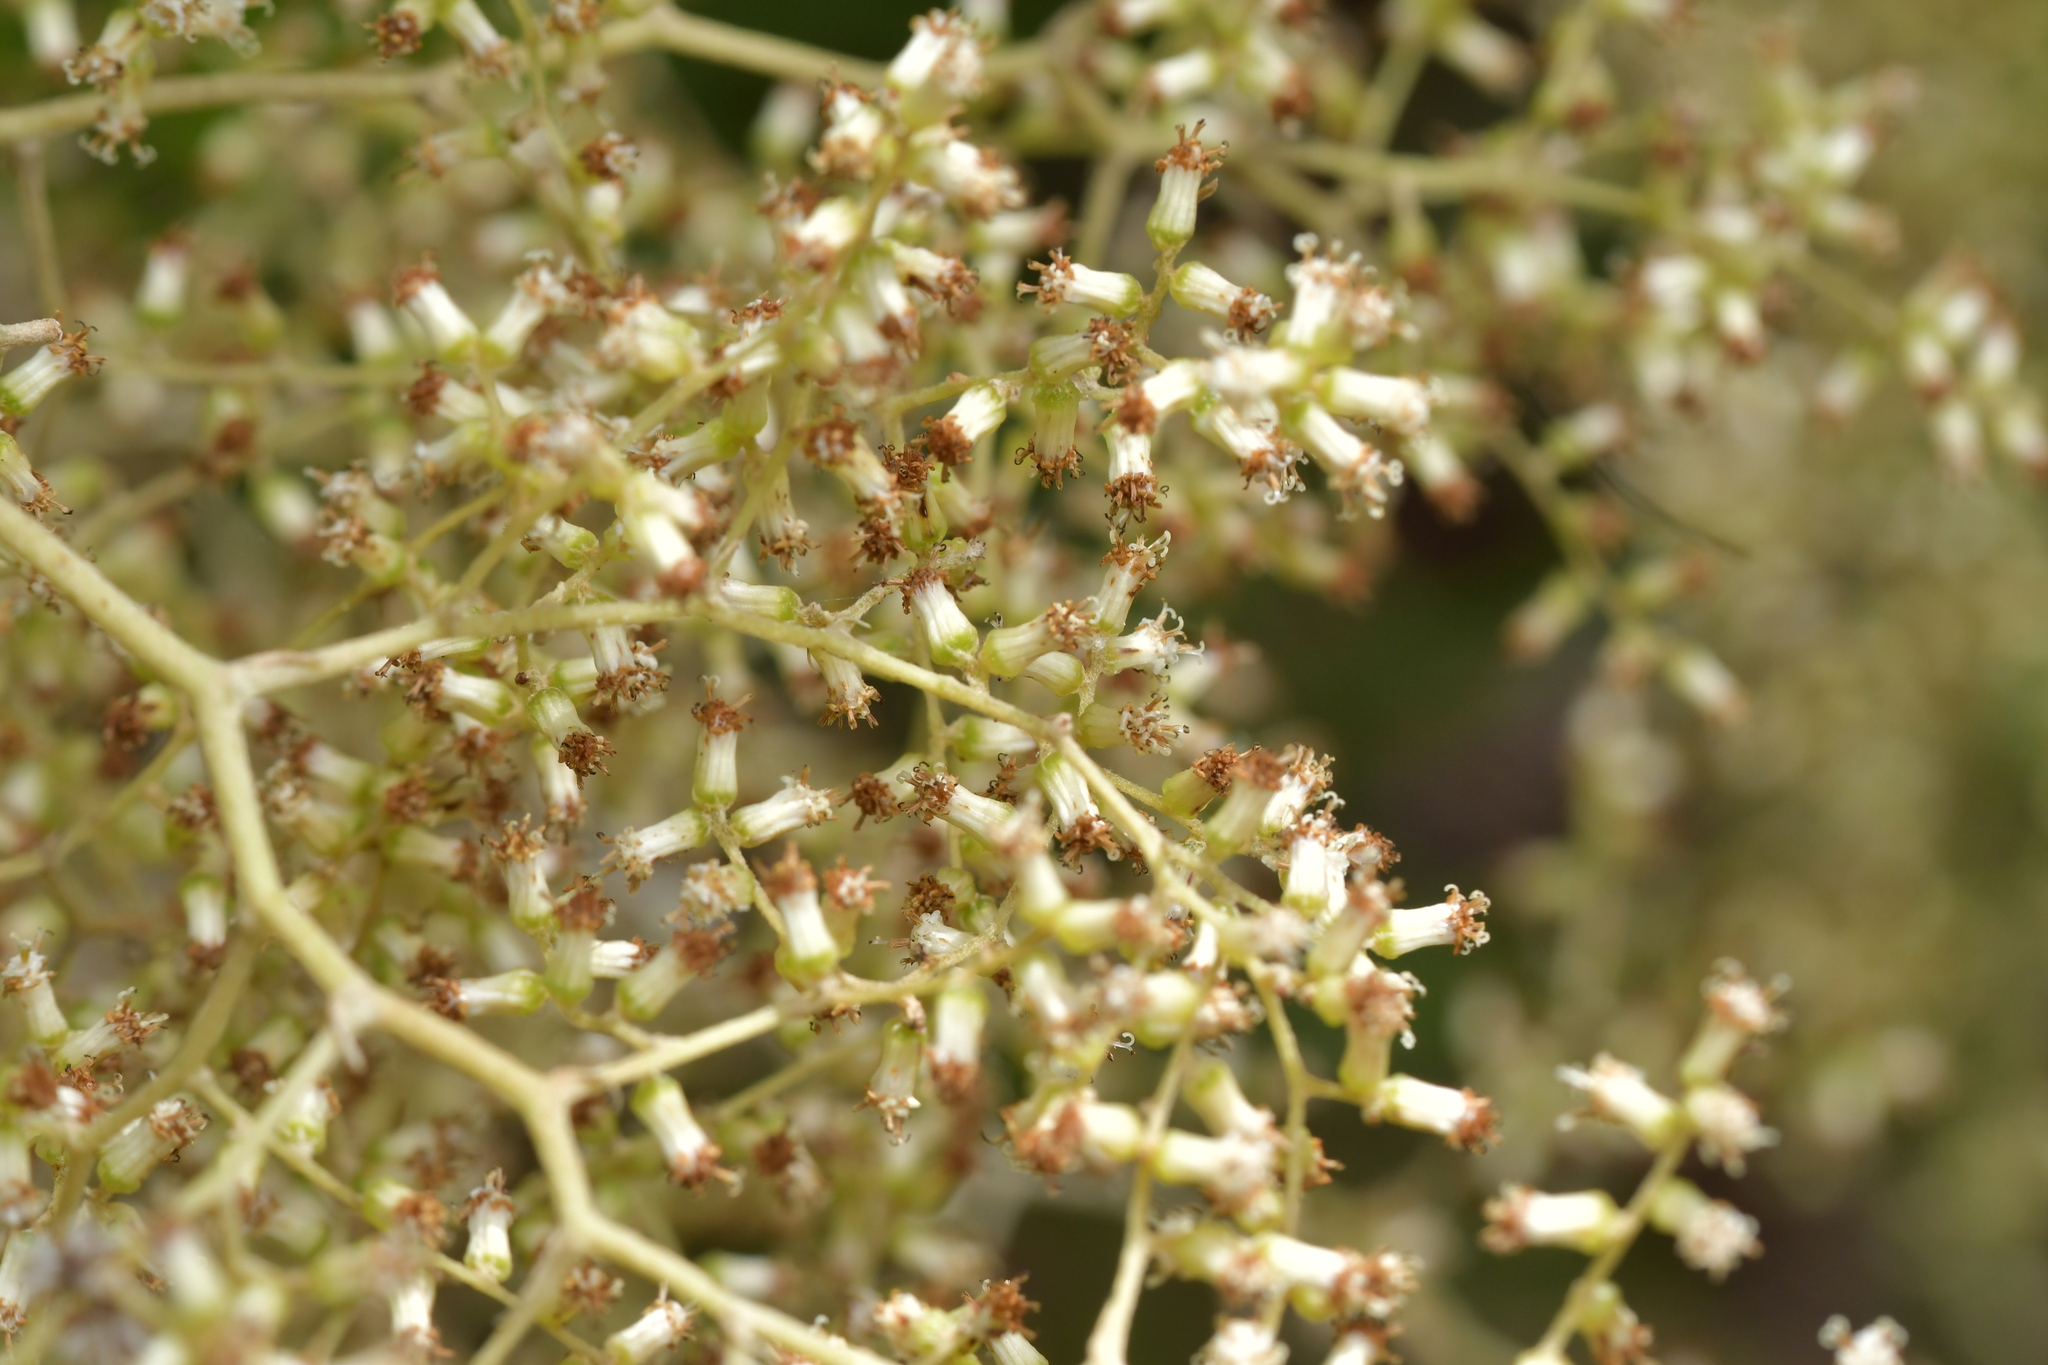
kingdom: Plantae
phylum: Tracheophyta
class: Magnoliopsida
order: Asterales
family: Asteraceae
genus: Brachyglottis
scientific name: Brachyglottis repanda
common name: Hedge ragwort
